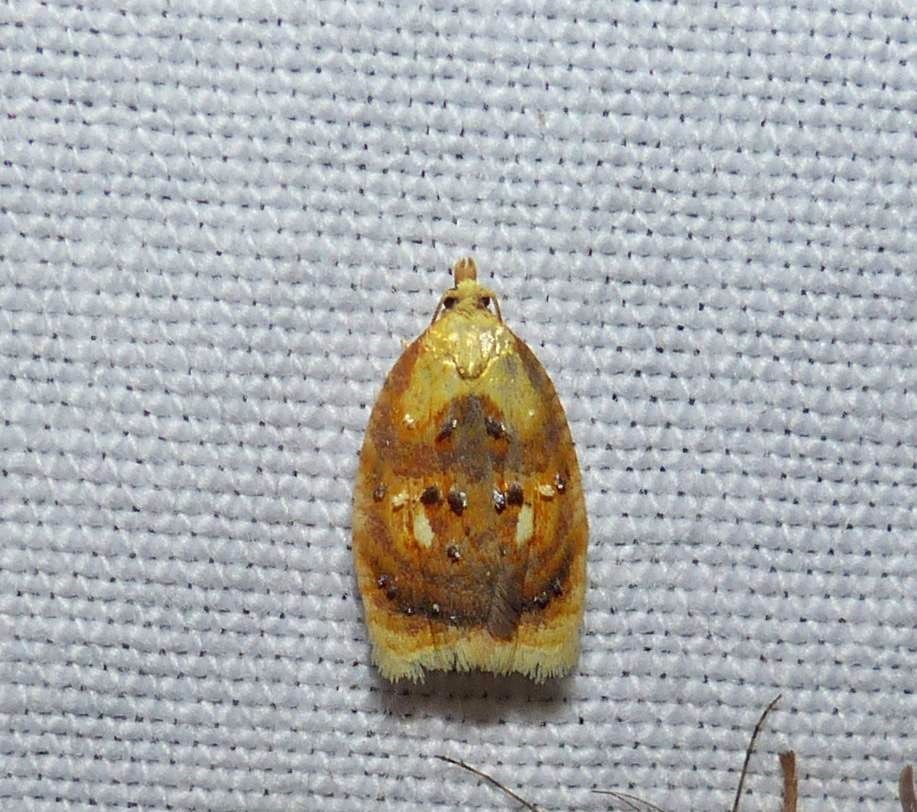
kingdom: Animalia
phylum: Arthropoda
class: Insecta
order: Lepidoptera
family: Tortricidae
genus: Acleris
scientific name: Acleris curvalana
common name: Blueberry leaftier moth
